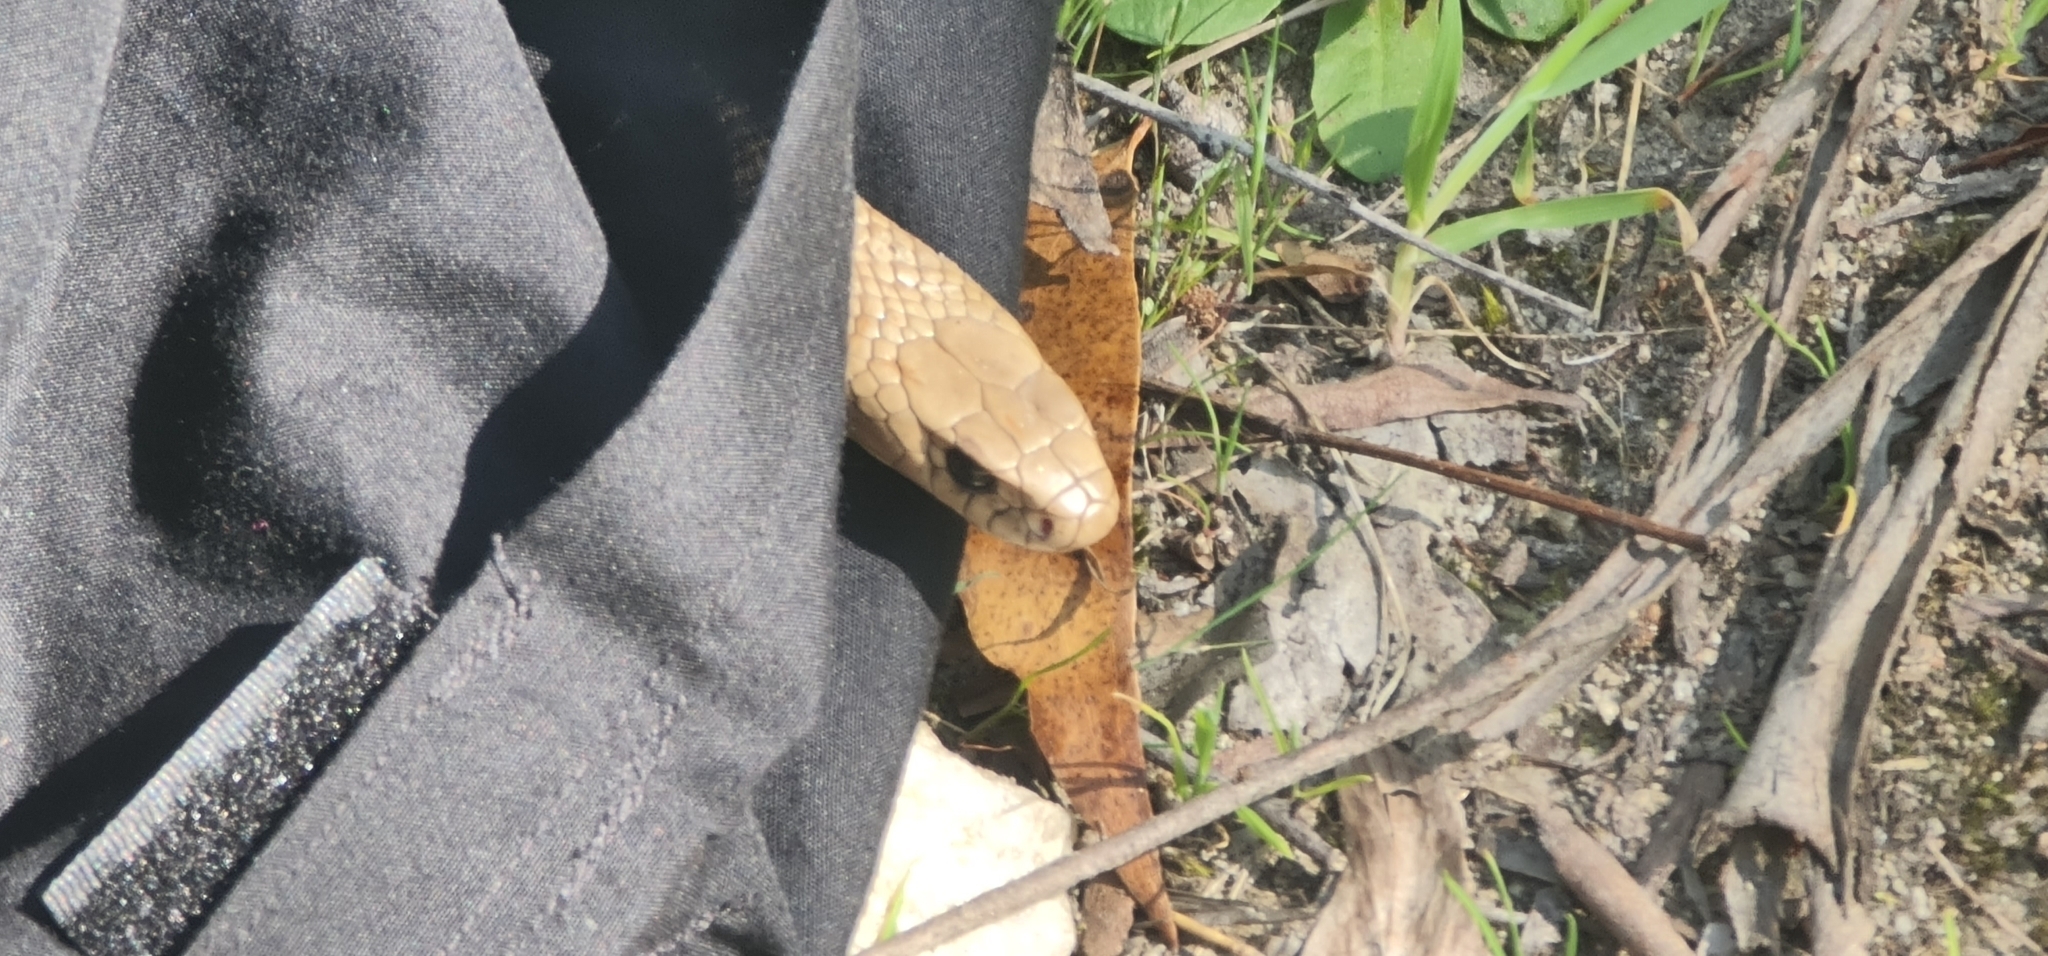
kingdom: Animalia
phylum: Chordata
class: Squamata
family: Elapidae
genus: Pseudonaja
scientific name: Pseudonaja textilis
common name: Eastern brown snake
